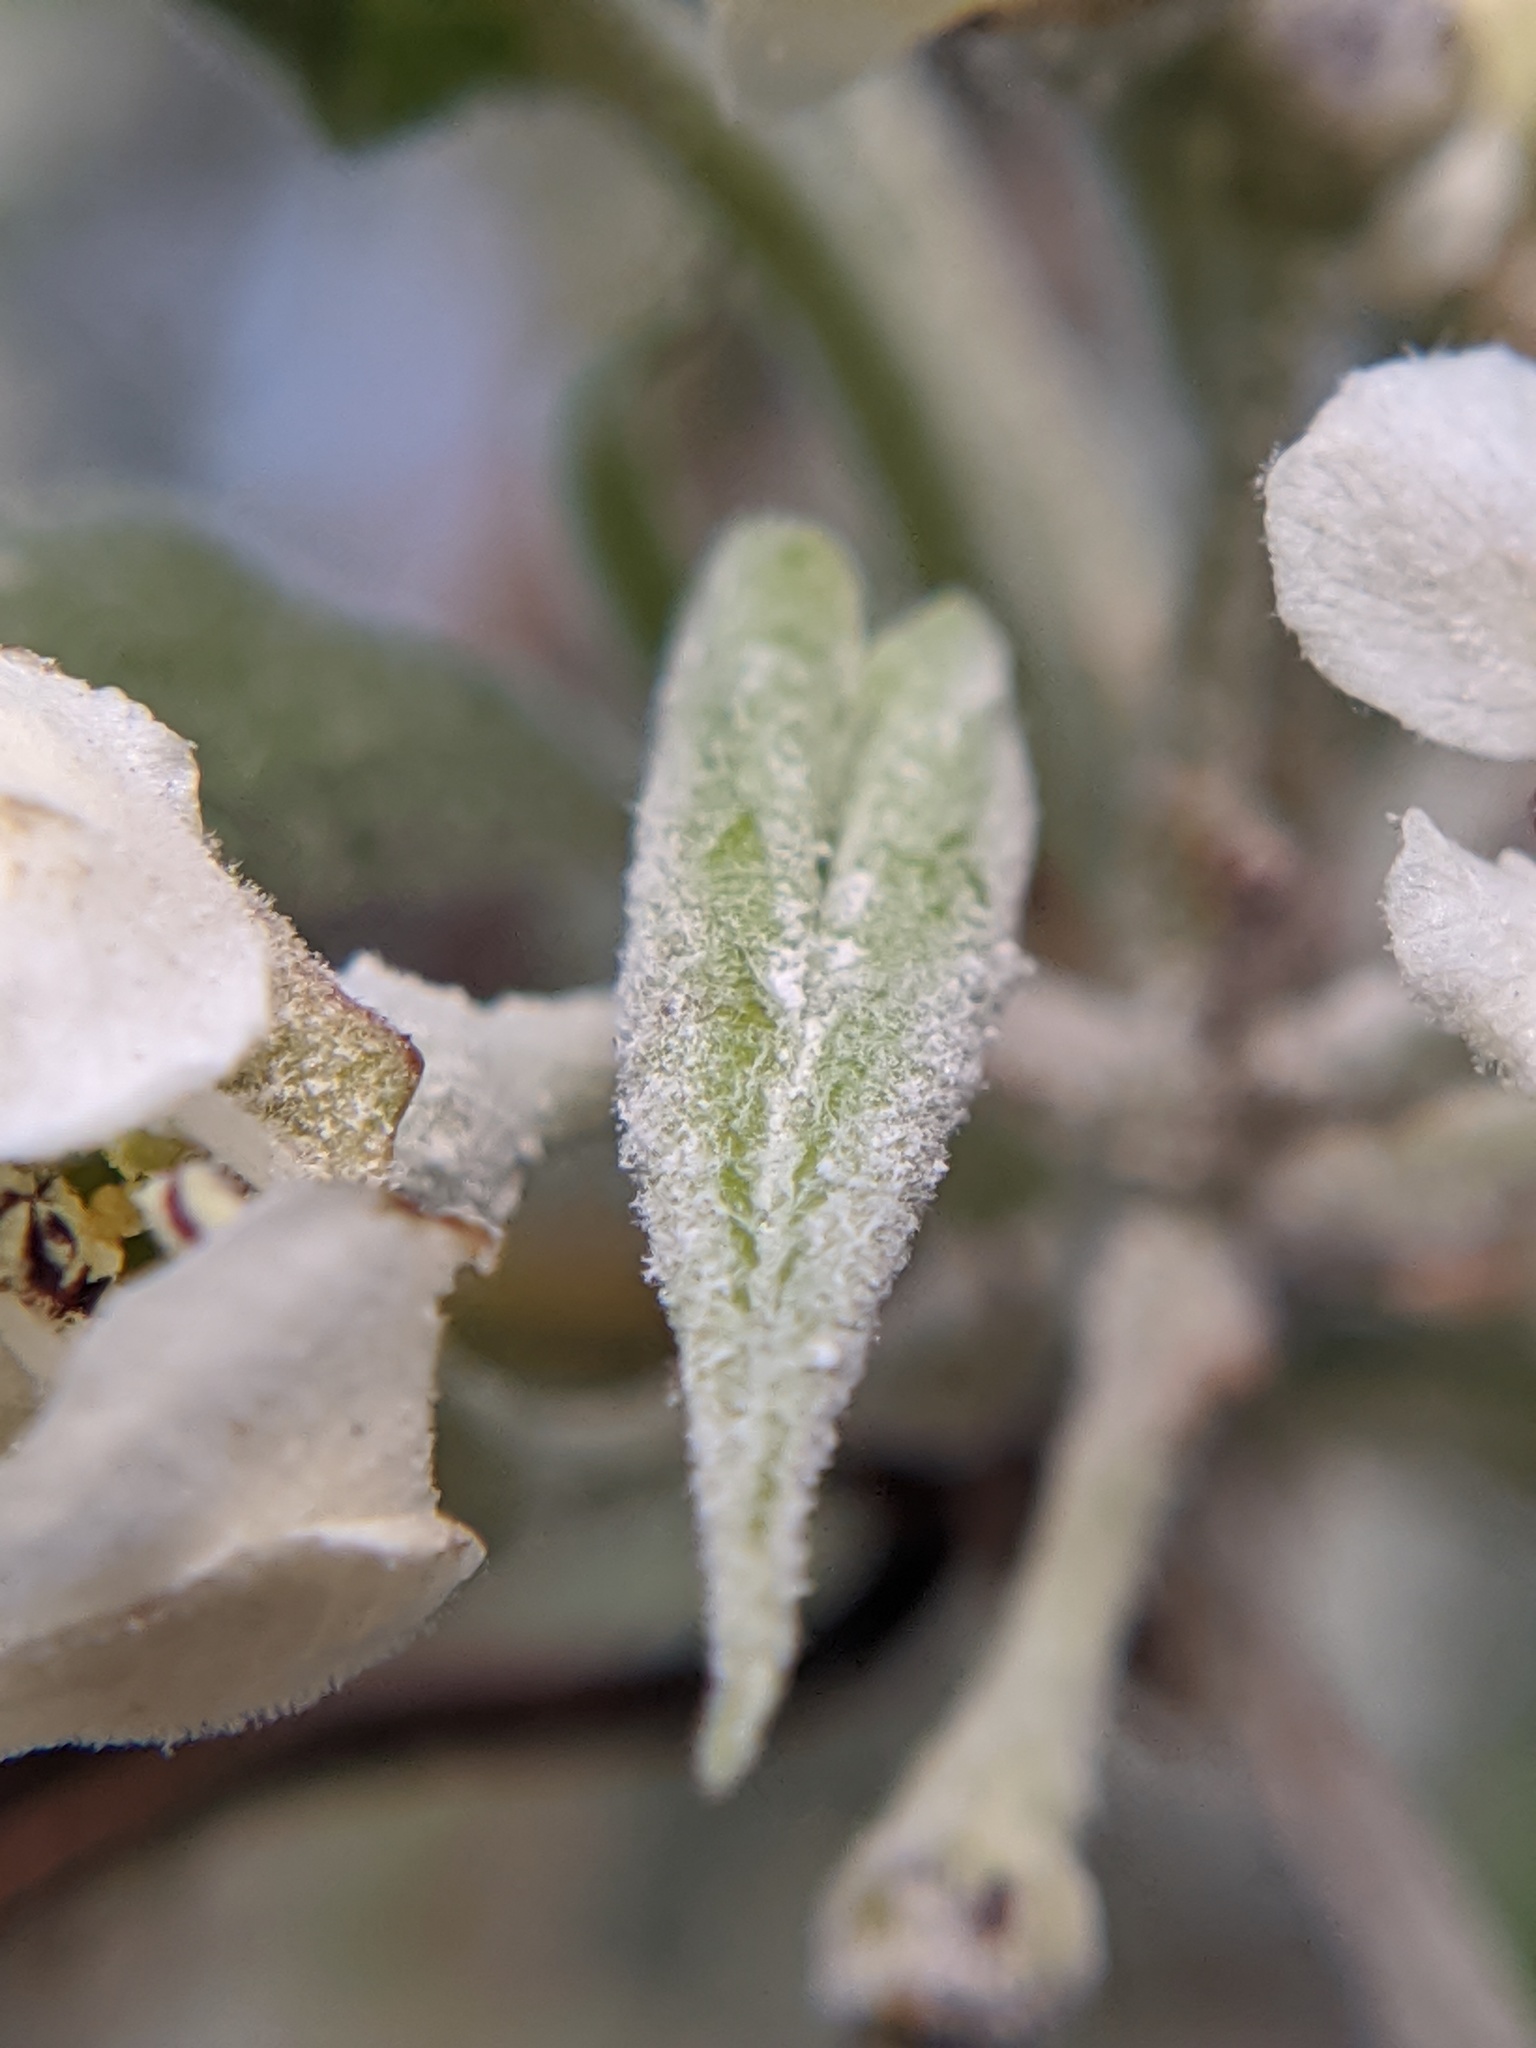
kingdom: Fungi
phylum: Ascomycota
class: Leotiomycetes
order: Helotiales
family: Erysiphaceae
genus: Podosphaera
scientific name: Podosphaera leucotricha
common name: Apple powdery mildew
